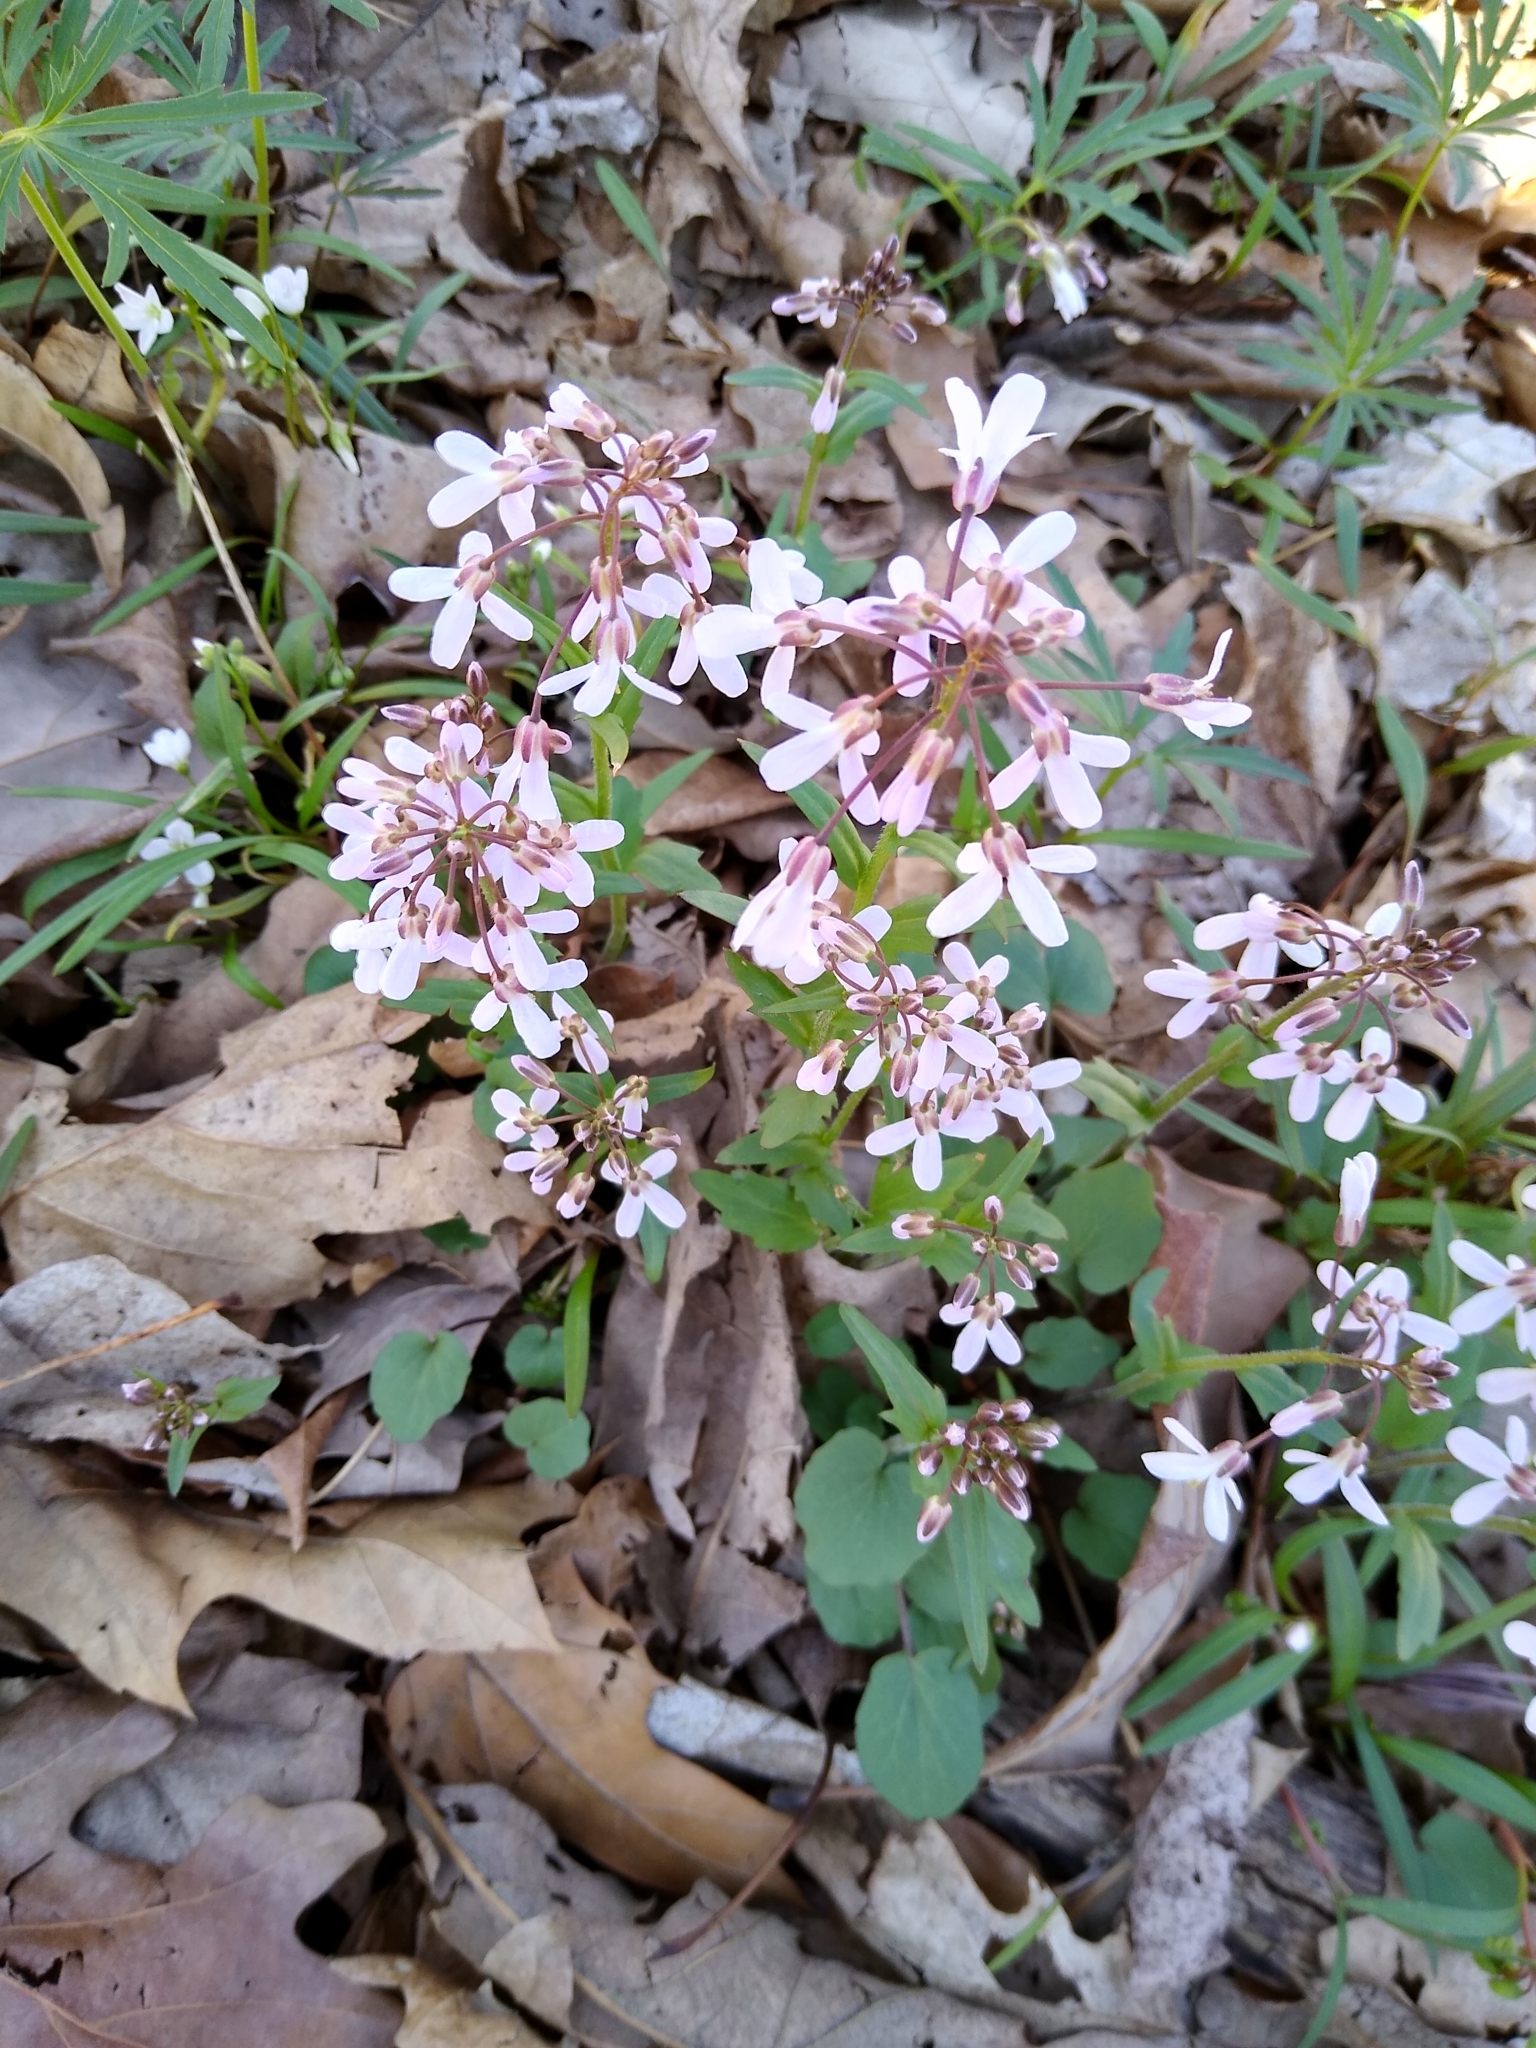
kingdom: Plantae
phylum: Tracheophyta
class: Magnoliopsida
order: Brassicales
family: Brassicaceae
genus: Cardamine
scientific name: Cardamine douglassii
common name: Purple cress
